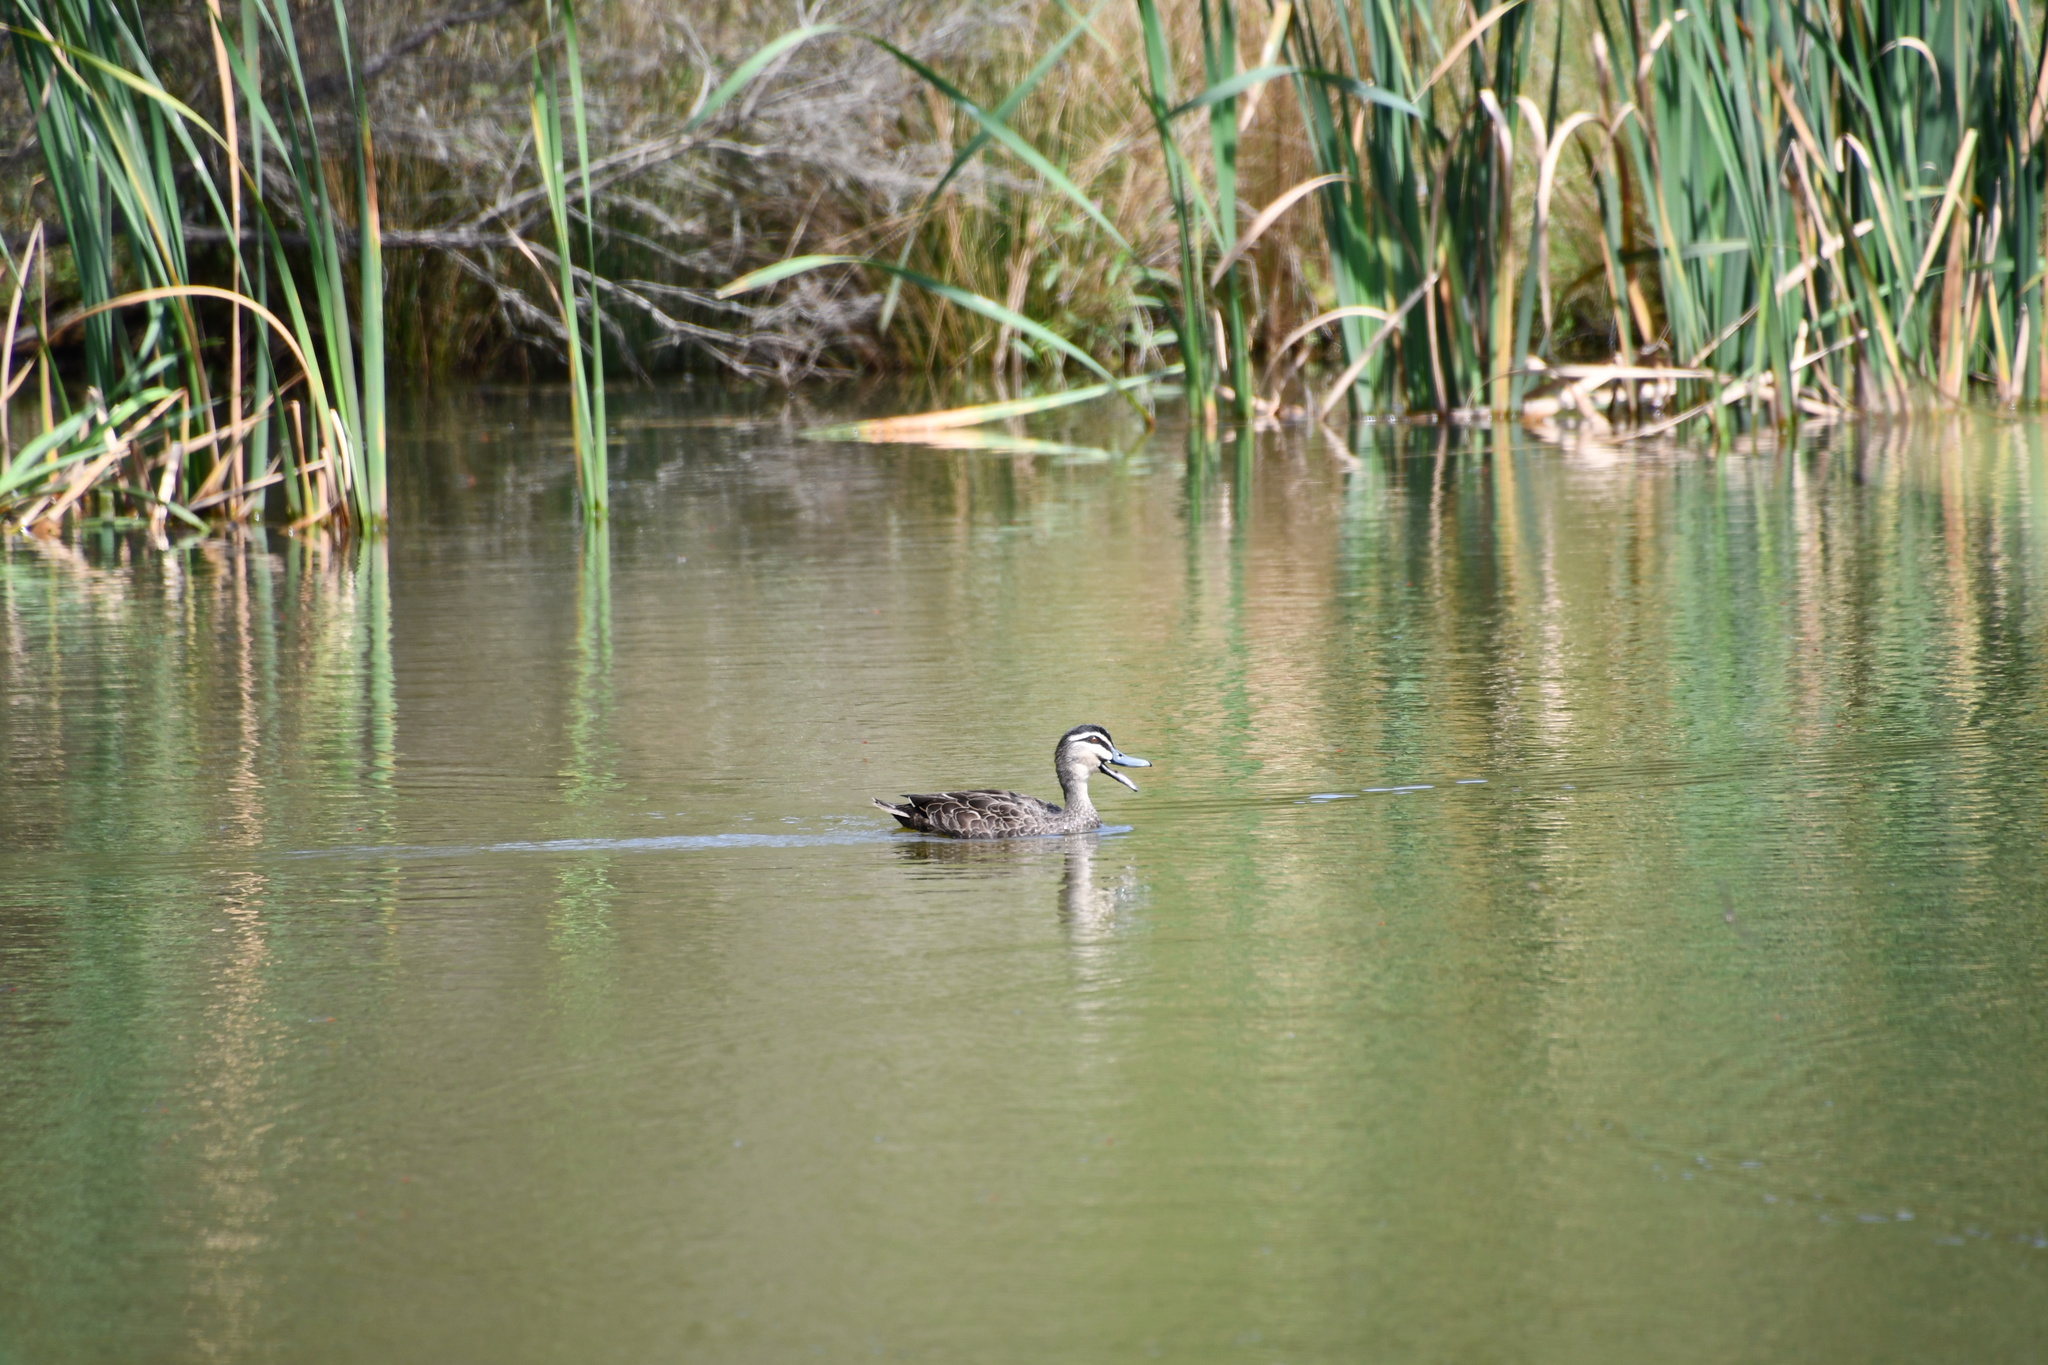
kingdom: Animalia
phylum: Chordata
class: Aves
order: Anseriformes
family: Anatidae
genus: Anas
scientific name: Anas superciliosa
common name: Pacific black duck
